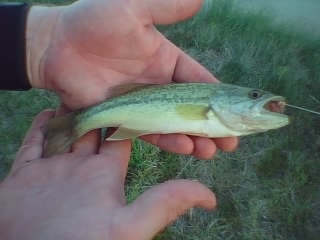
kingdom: Animalia
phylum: Chordata
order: Perciformes
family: Centrarchidae
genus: Micropterus
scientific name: Micropterus
